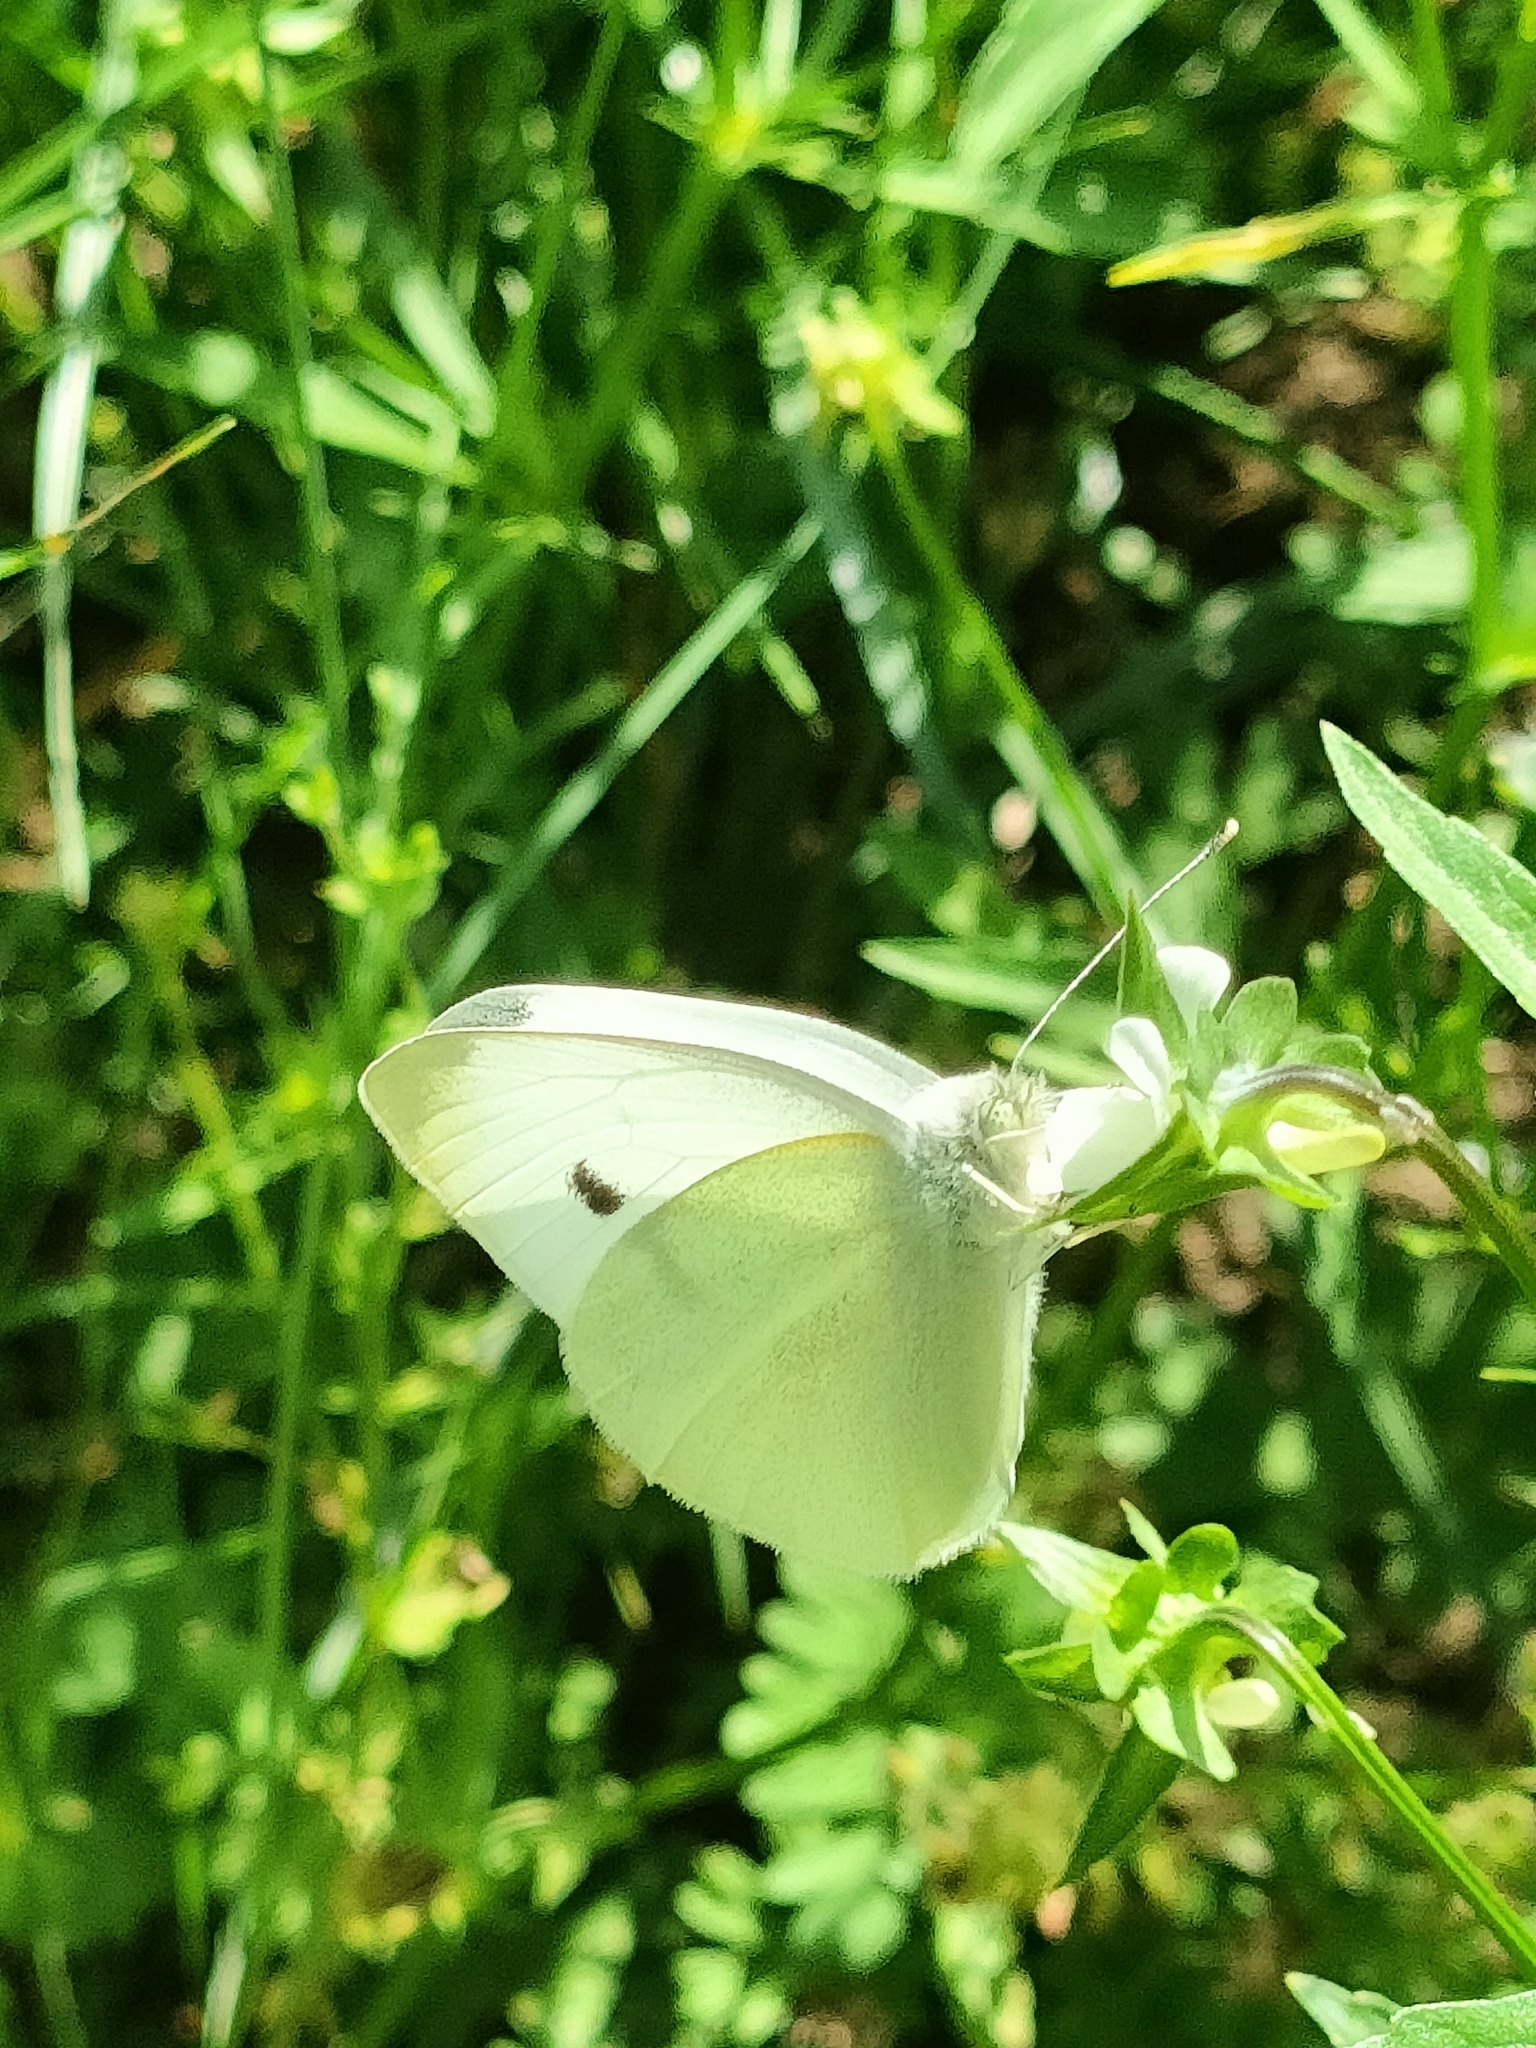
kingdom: Animalia
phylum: Arthropoda
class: Insecta
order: Lepidoptera
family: Pieridae
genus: Pieris
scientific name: Pieris rapae
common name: Small white
